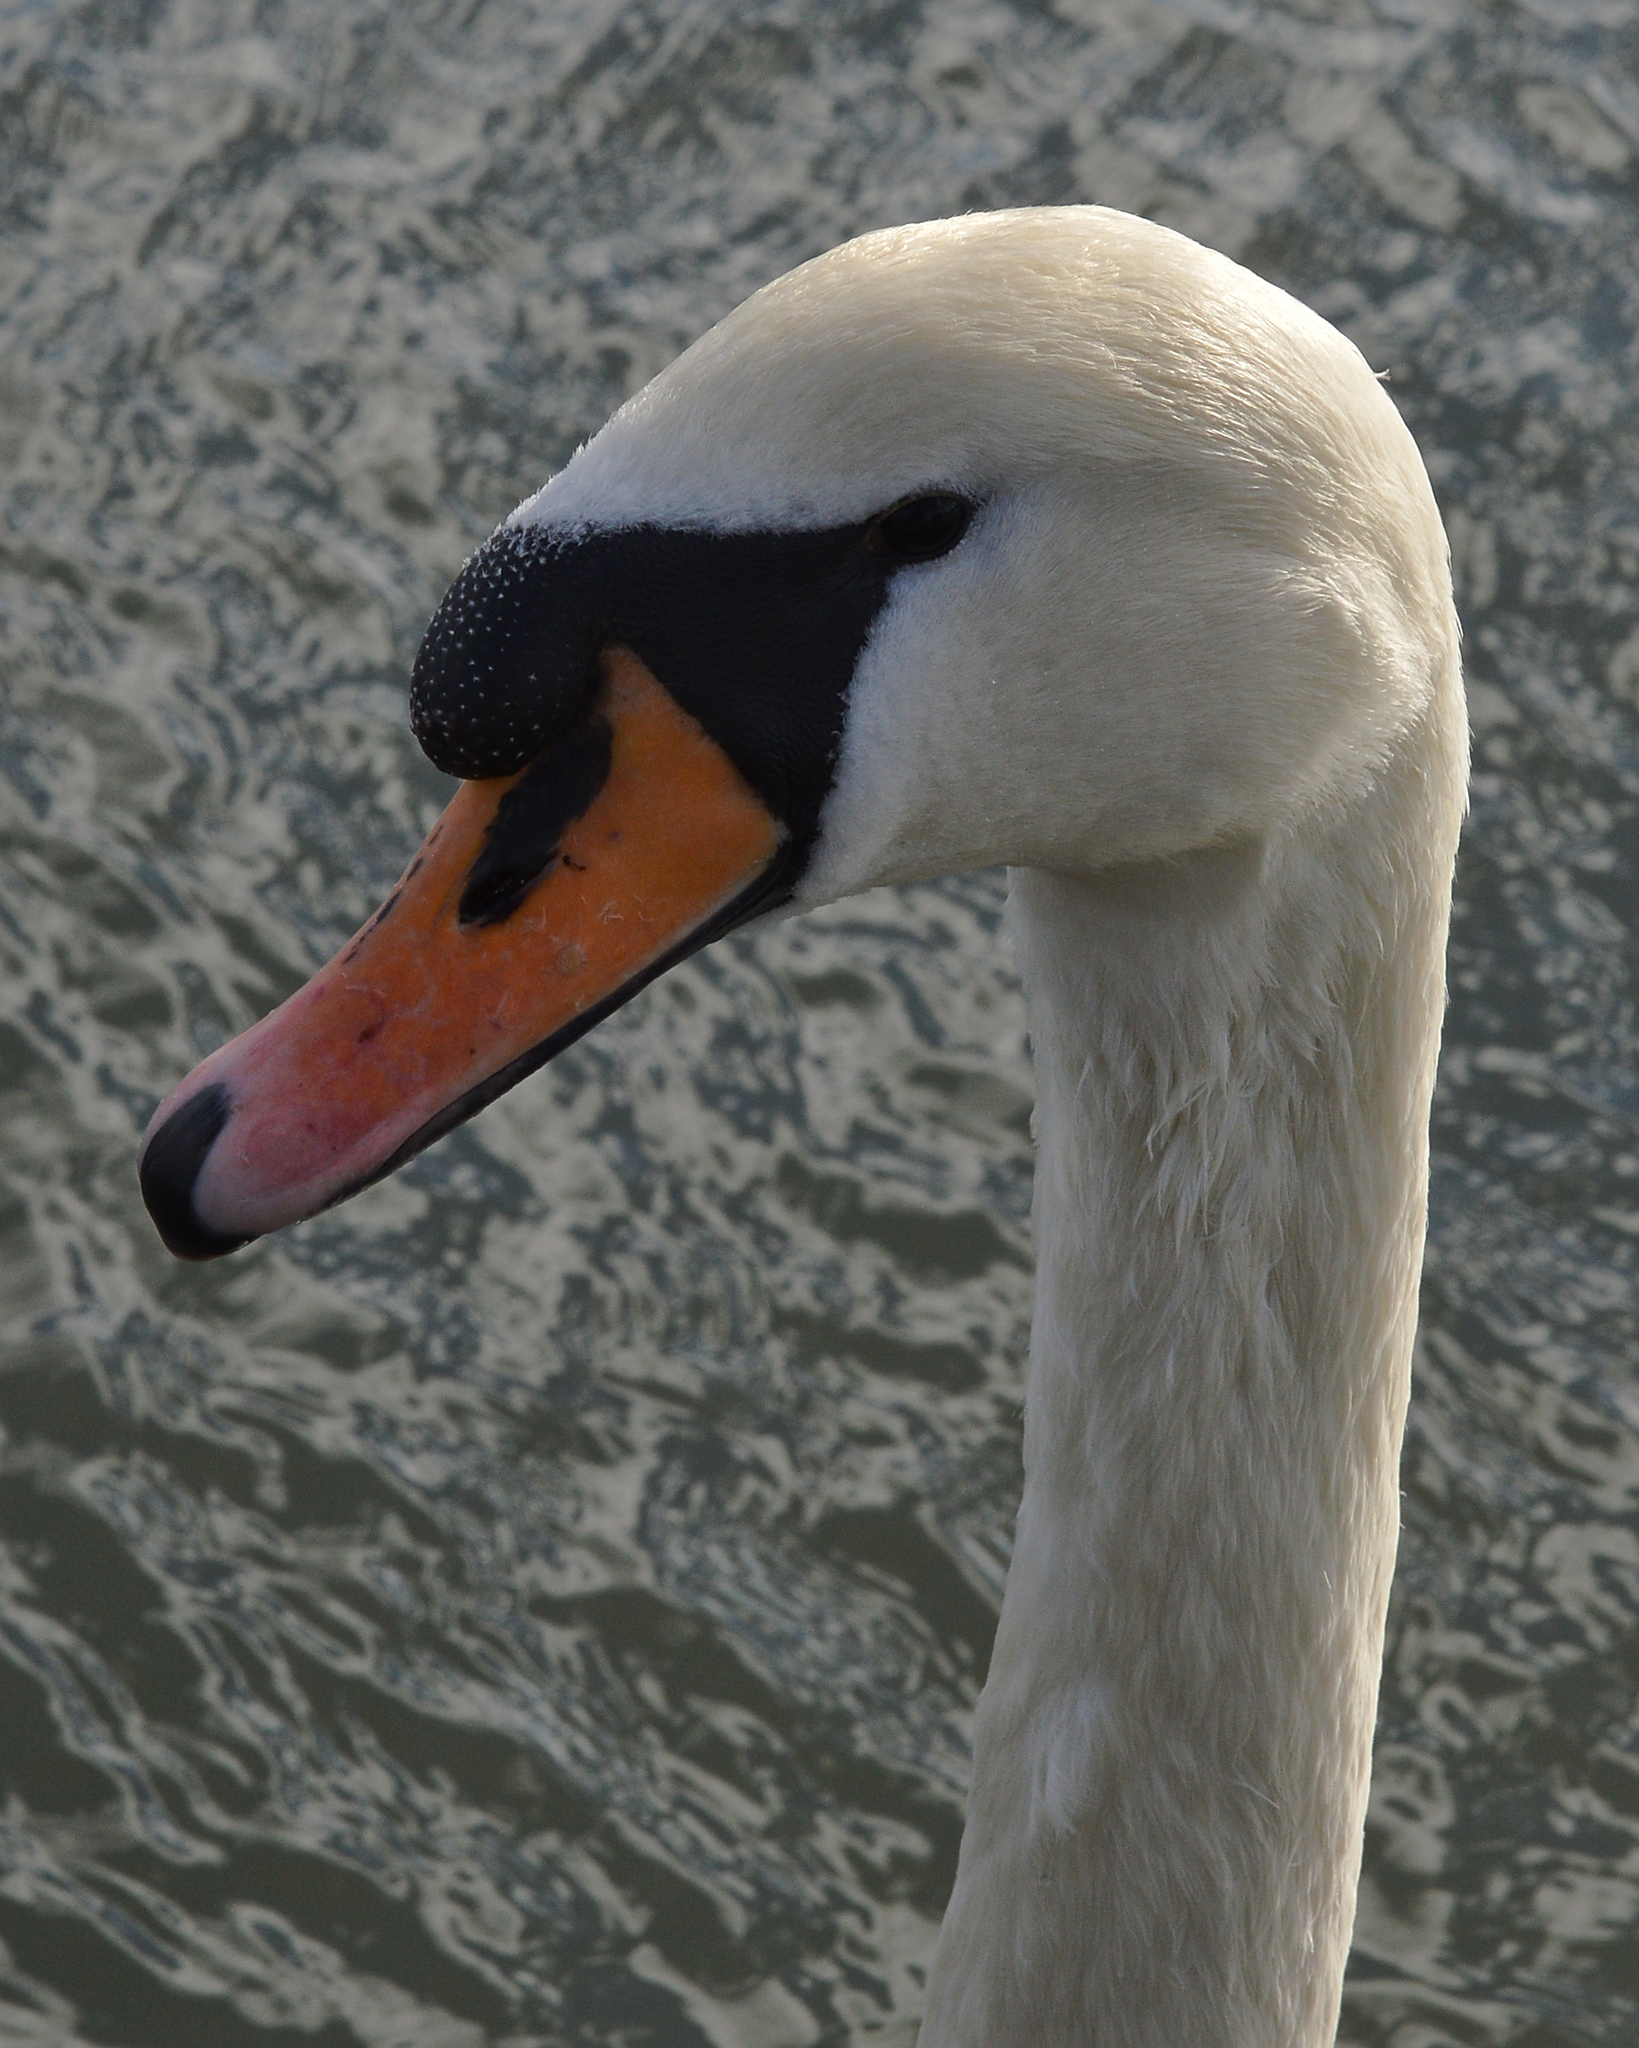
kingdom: Animalia
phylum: Chordata
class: Aves
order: Anseriformes
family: Anatidae
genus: Cygnus
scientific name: Cygnus olor
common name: Mute swan
